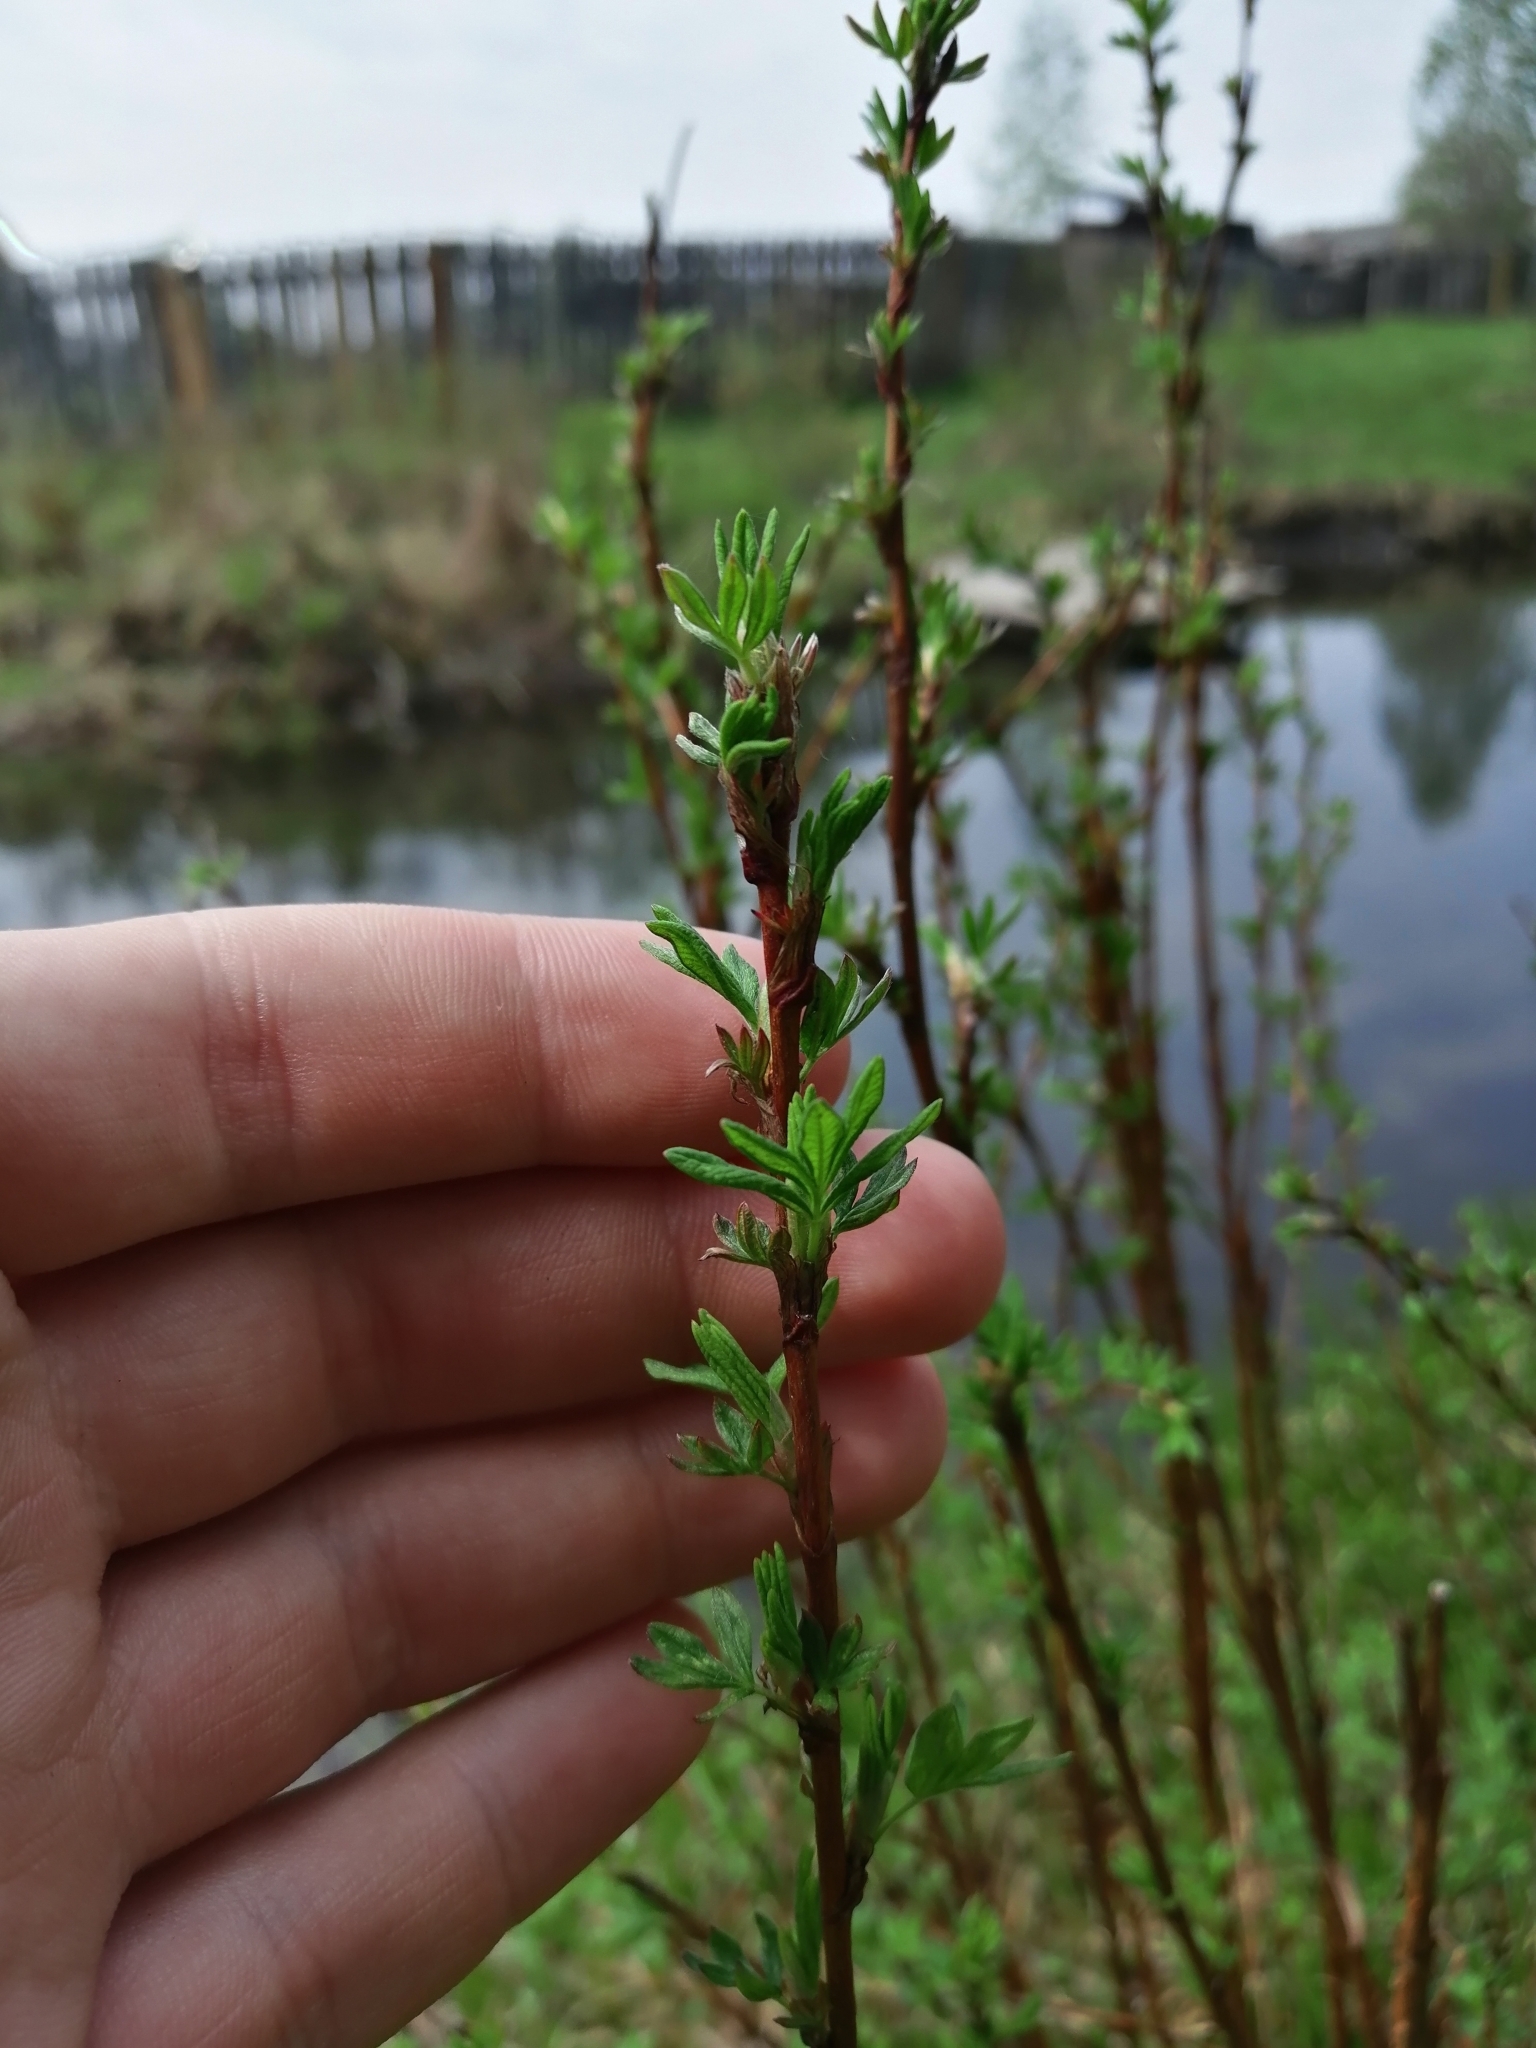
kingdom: Plantae
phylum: Tracheophyta
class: Magnoliopsida
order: Rosales
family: Rosaceae
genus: Dasiphora
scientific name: Dasiphora fruticosa
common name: Shrubby cinquefoil
